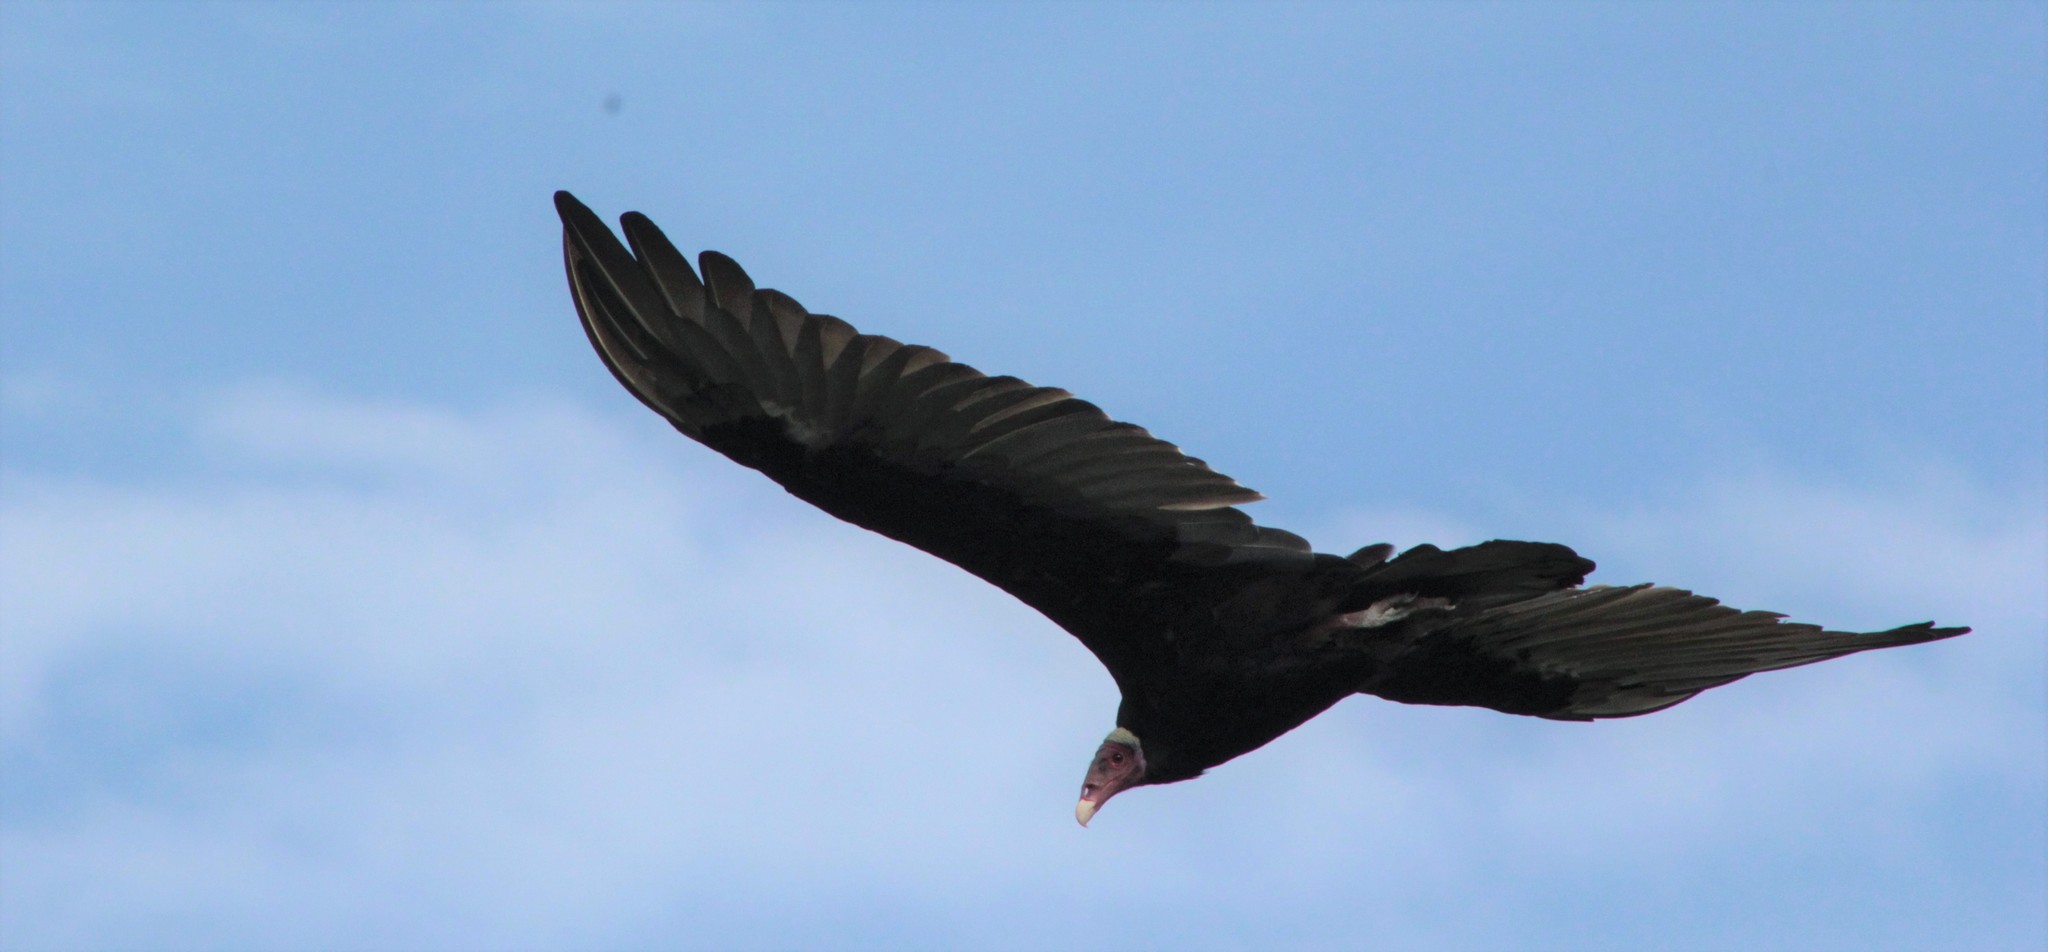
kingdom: Animalia
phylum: Chordata
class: Aves
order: Accipitriformes
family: Cathartidae
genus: Cathartes
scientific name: Cathartes aura
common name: Turkey vulture
